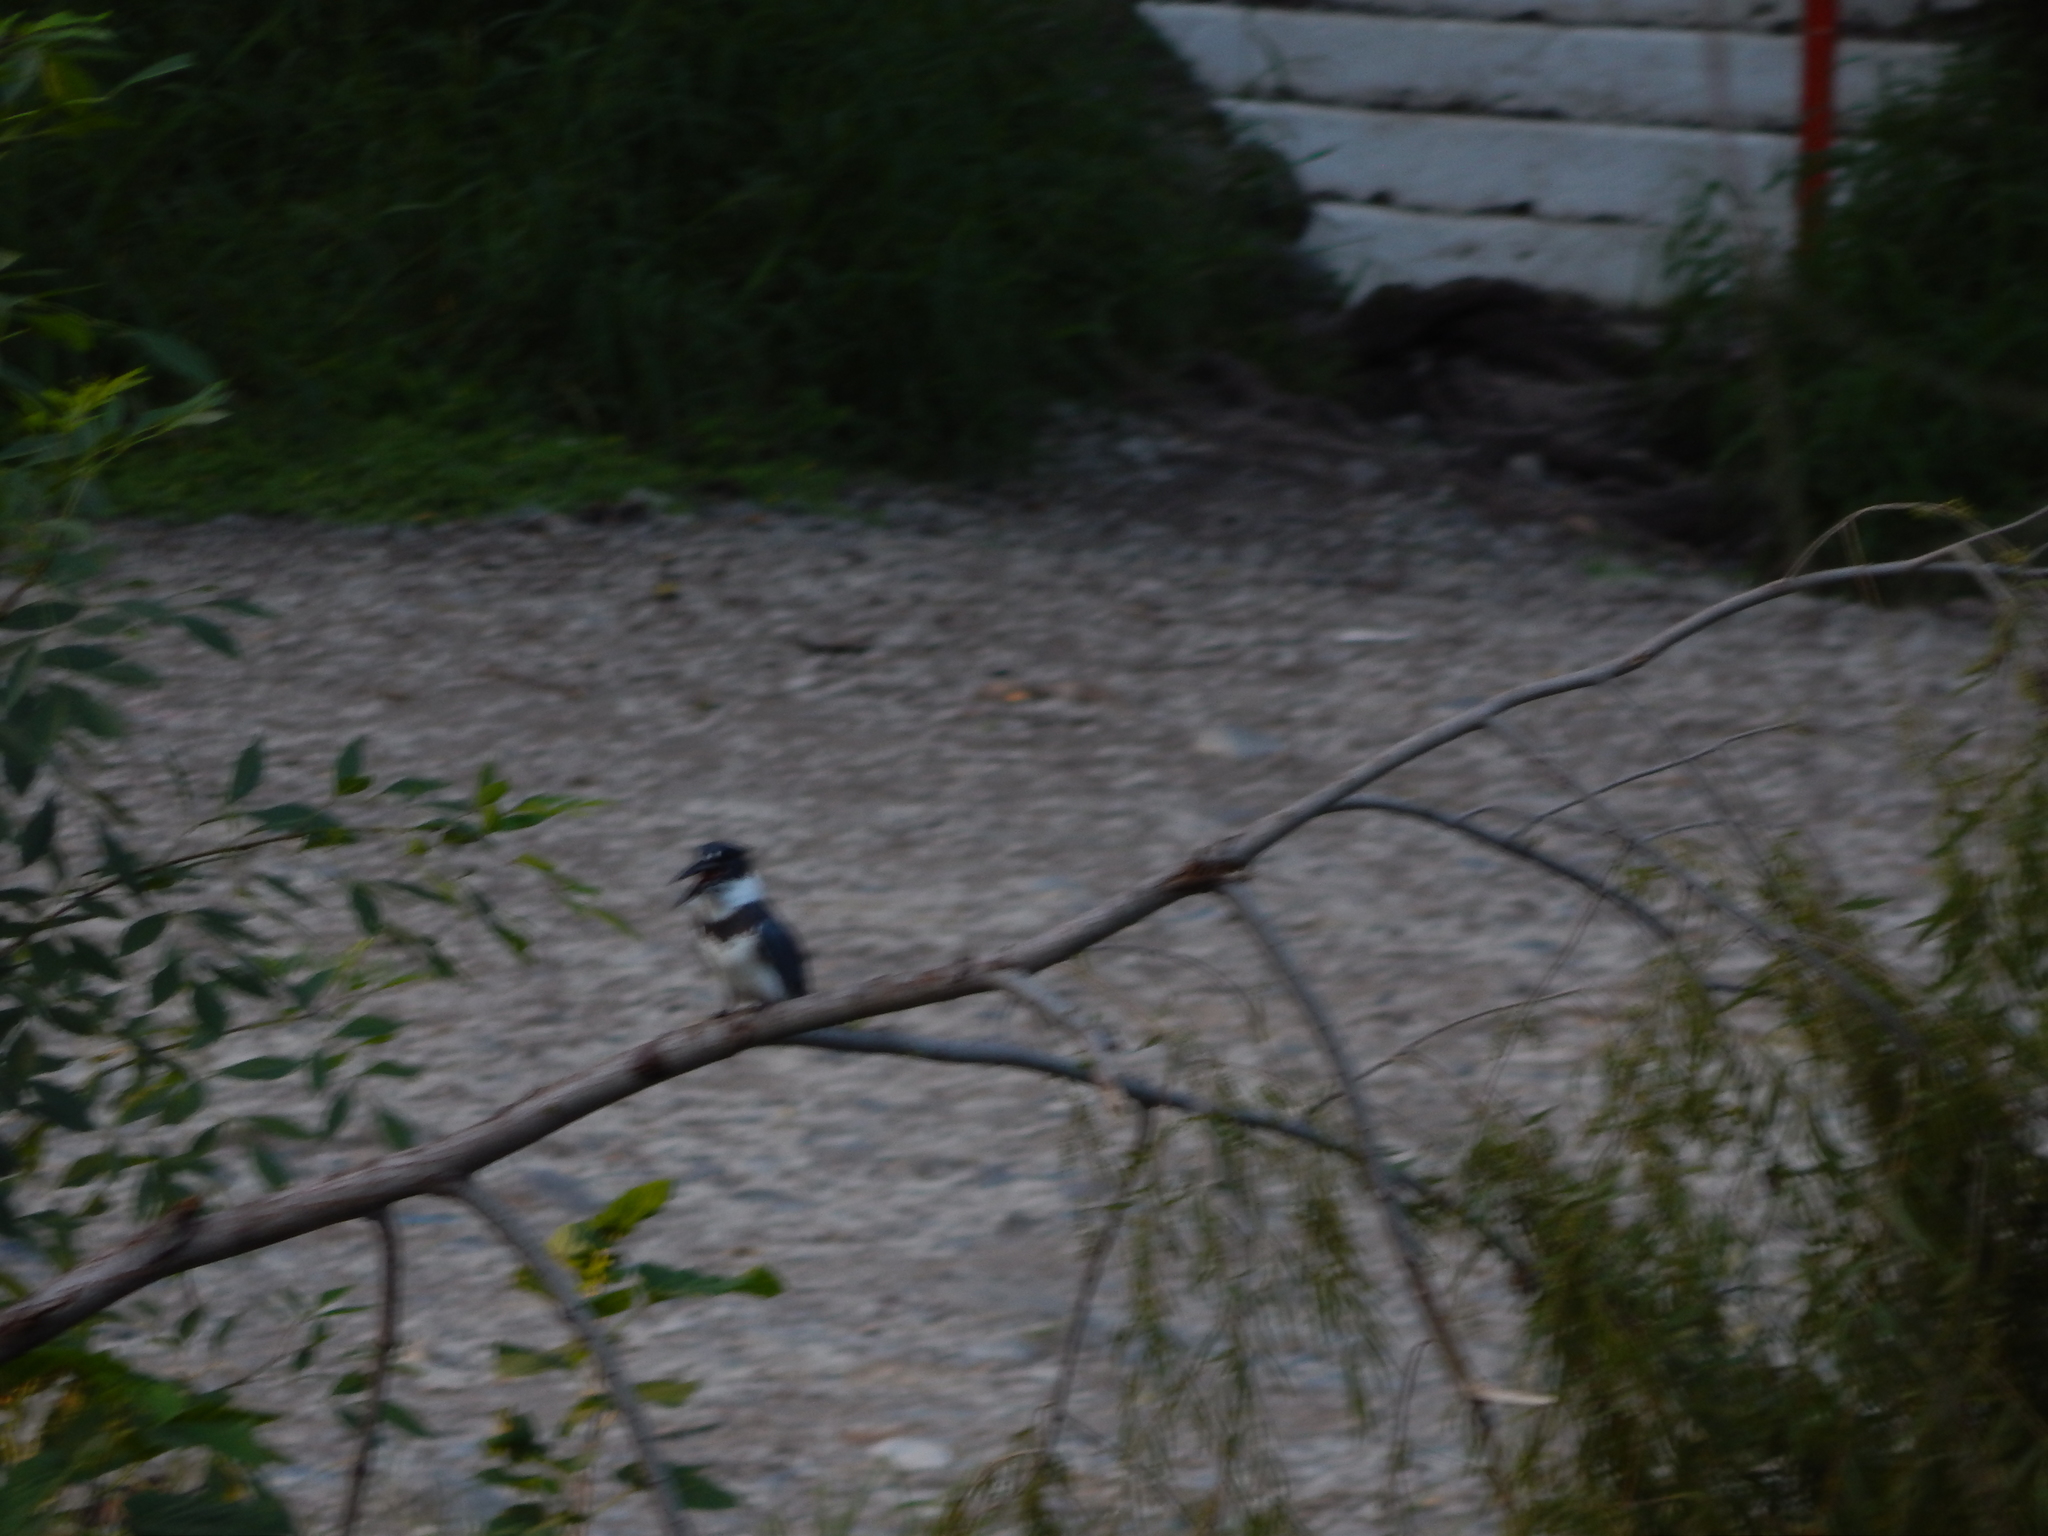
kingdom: Animalia
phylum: Chordata
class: Aves
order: Coraciiformes
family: Alcedinidae
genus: Megaceryle
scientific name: Megaceryle alcyon
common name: Belted kingfisher
